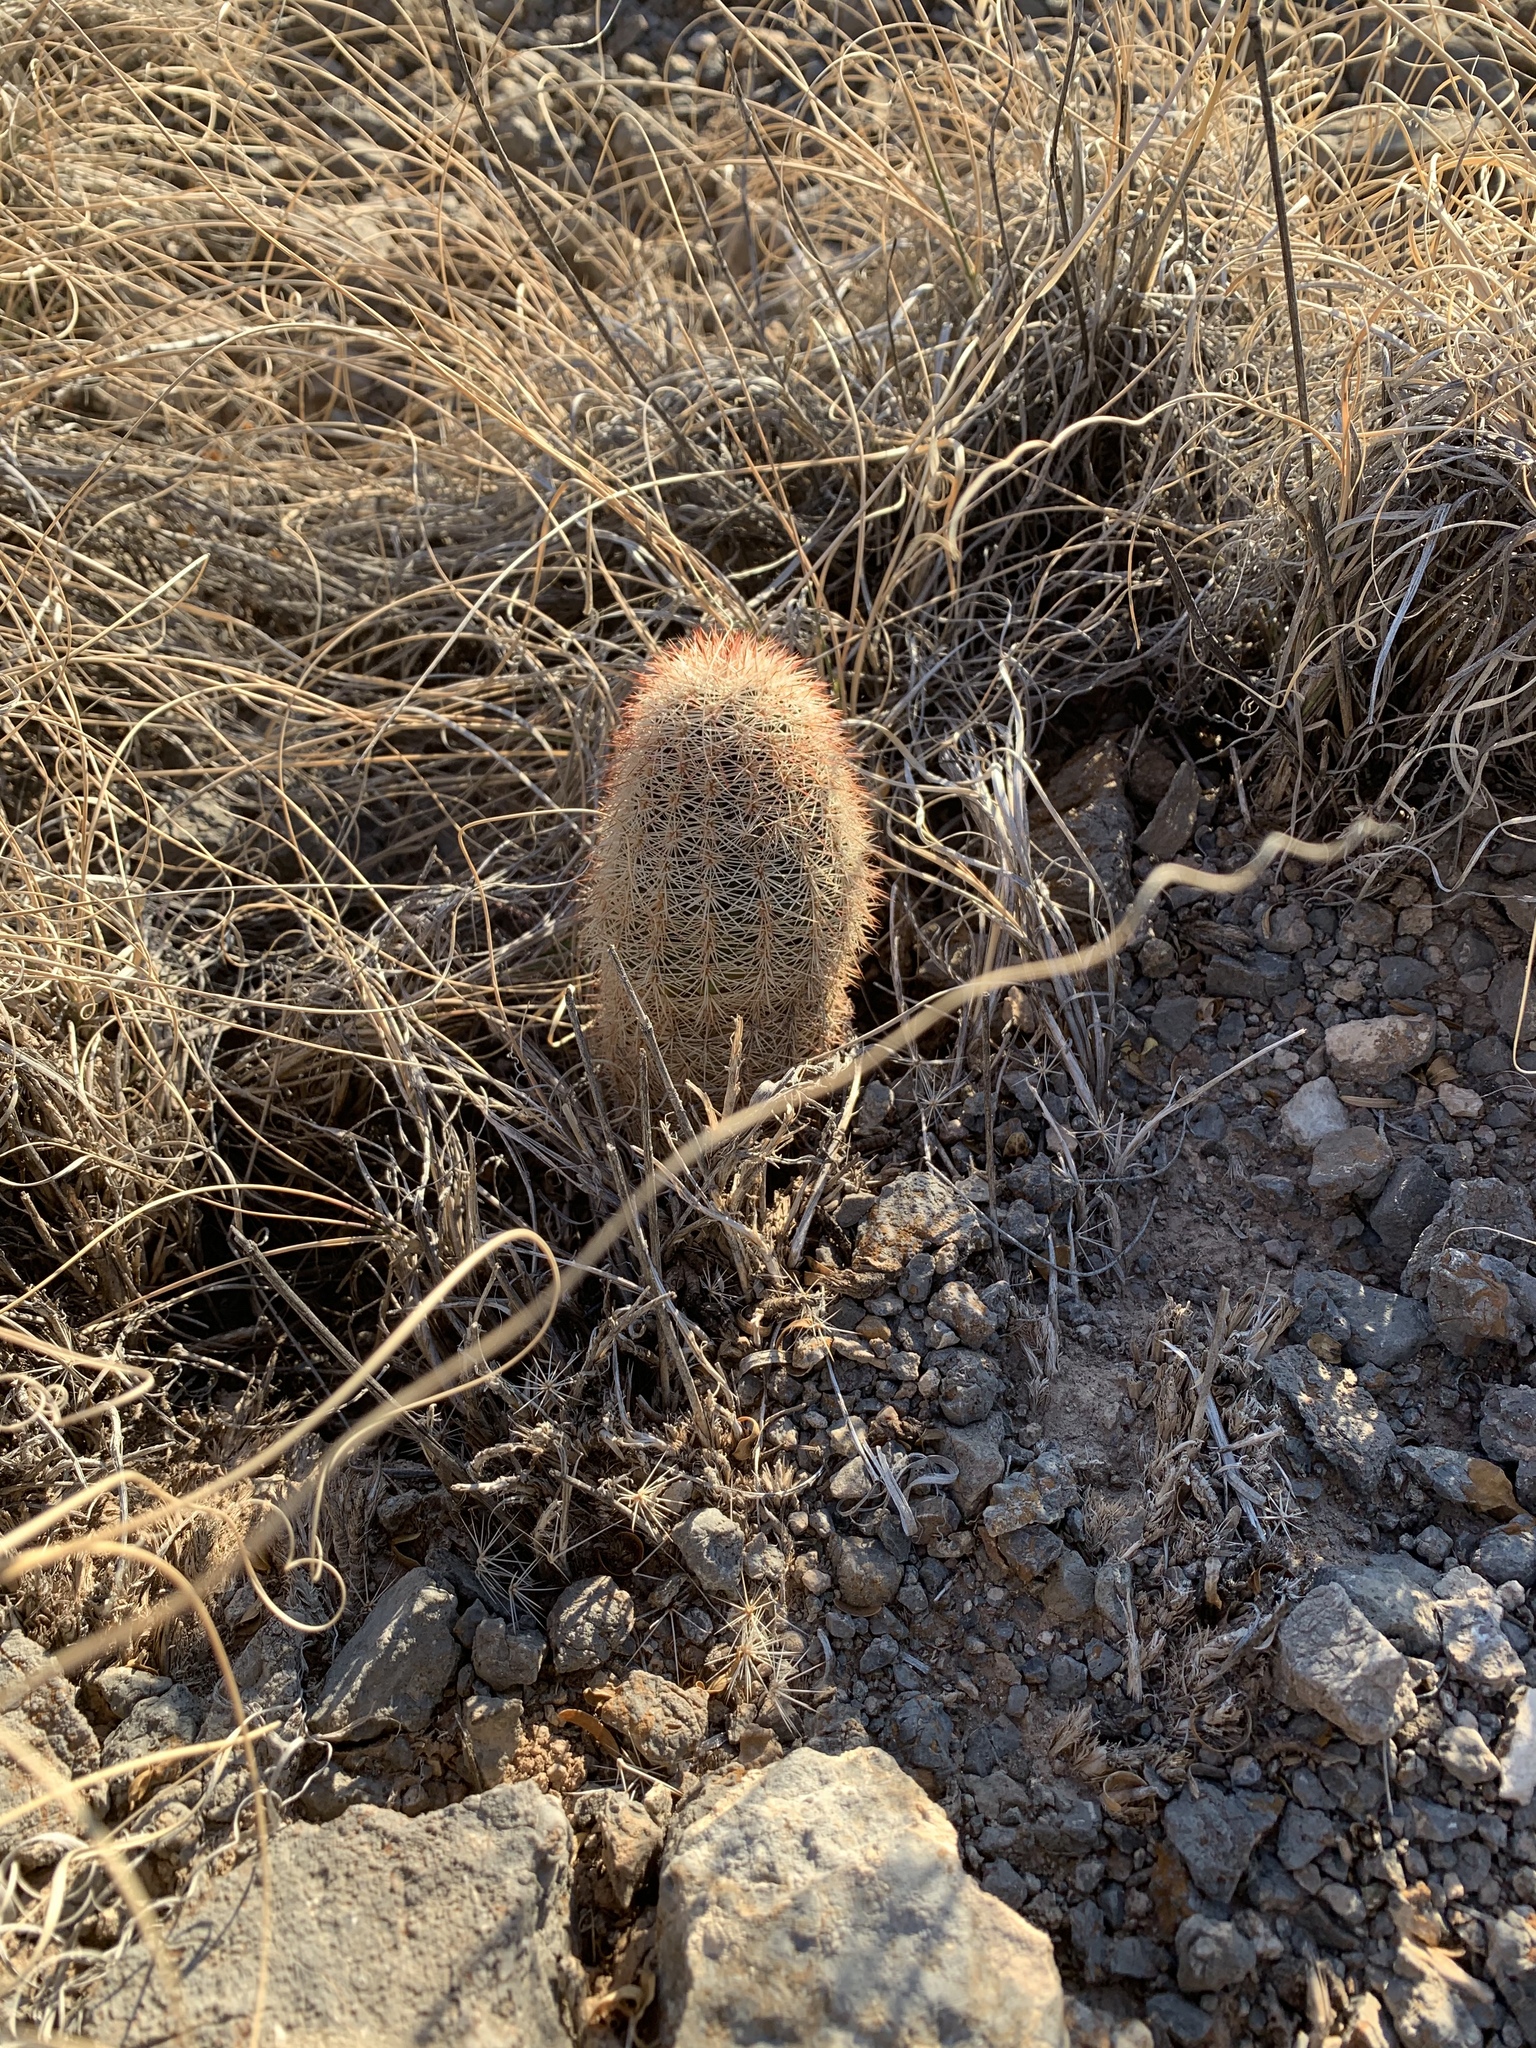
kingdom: Plantae
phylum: Tracheophyta
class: Magnoliopsida
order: Caryophyllales
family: Cactaceae
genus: Echinocereus
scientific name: Echinocereus dasyacanthus
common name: Spiny hedgehog cactus
